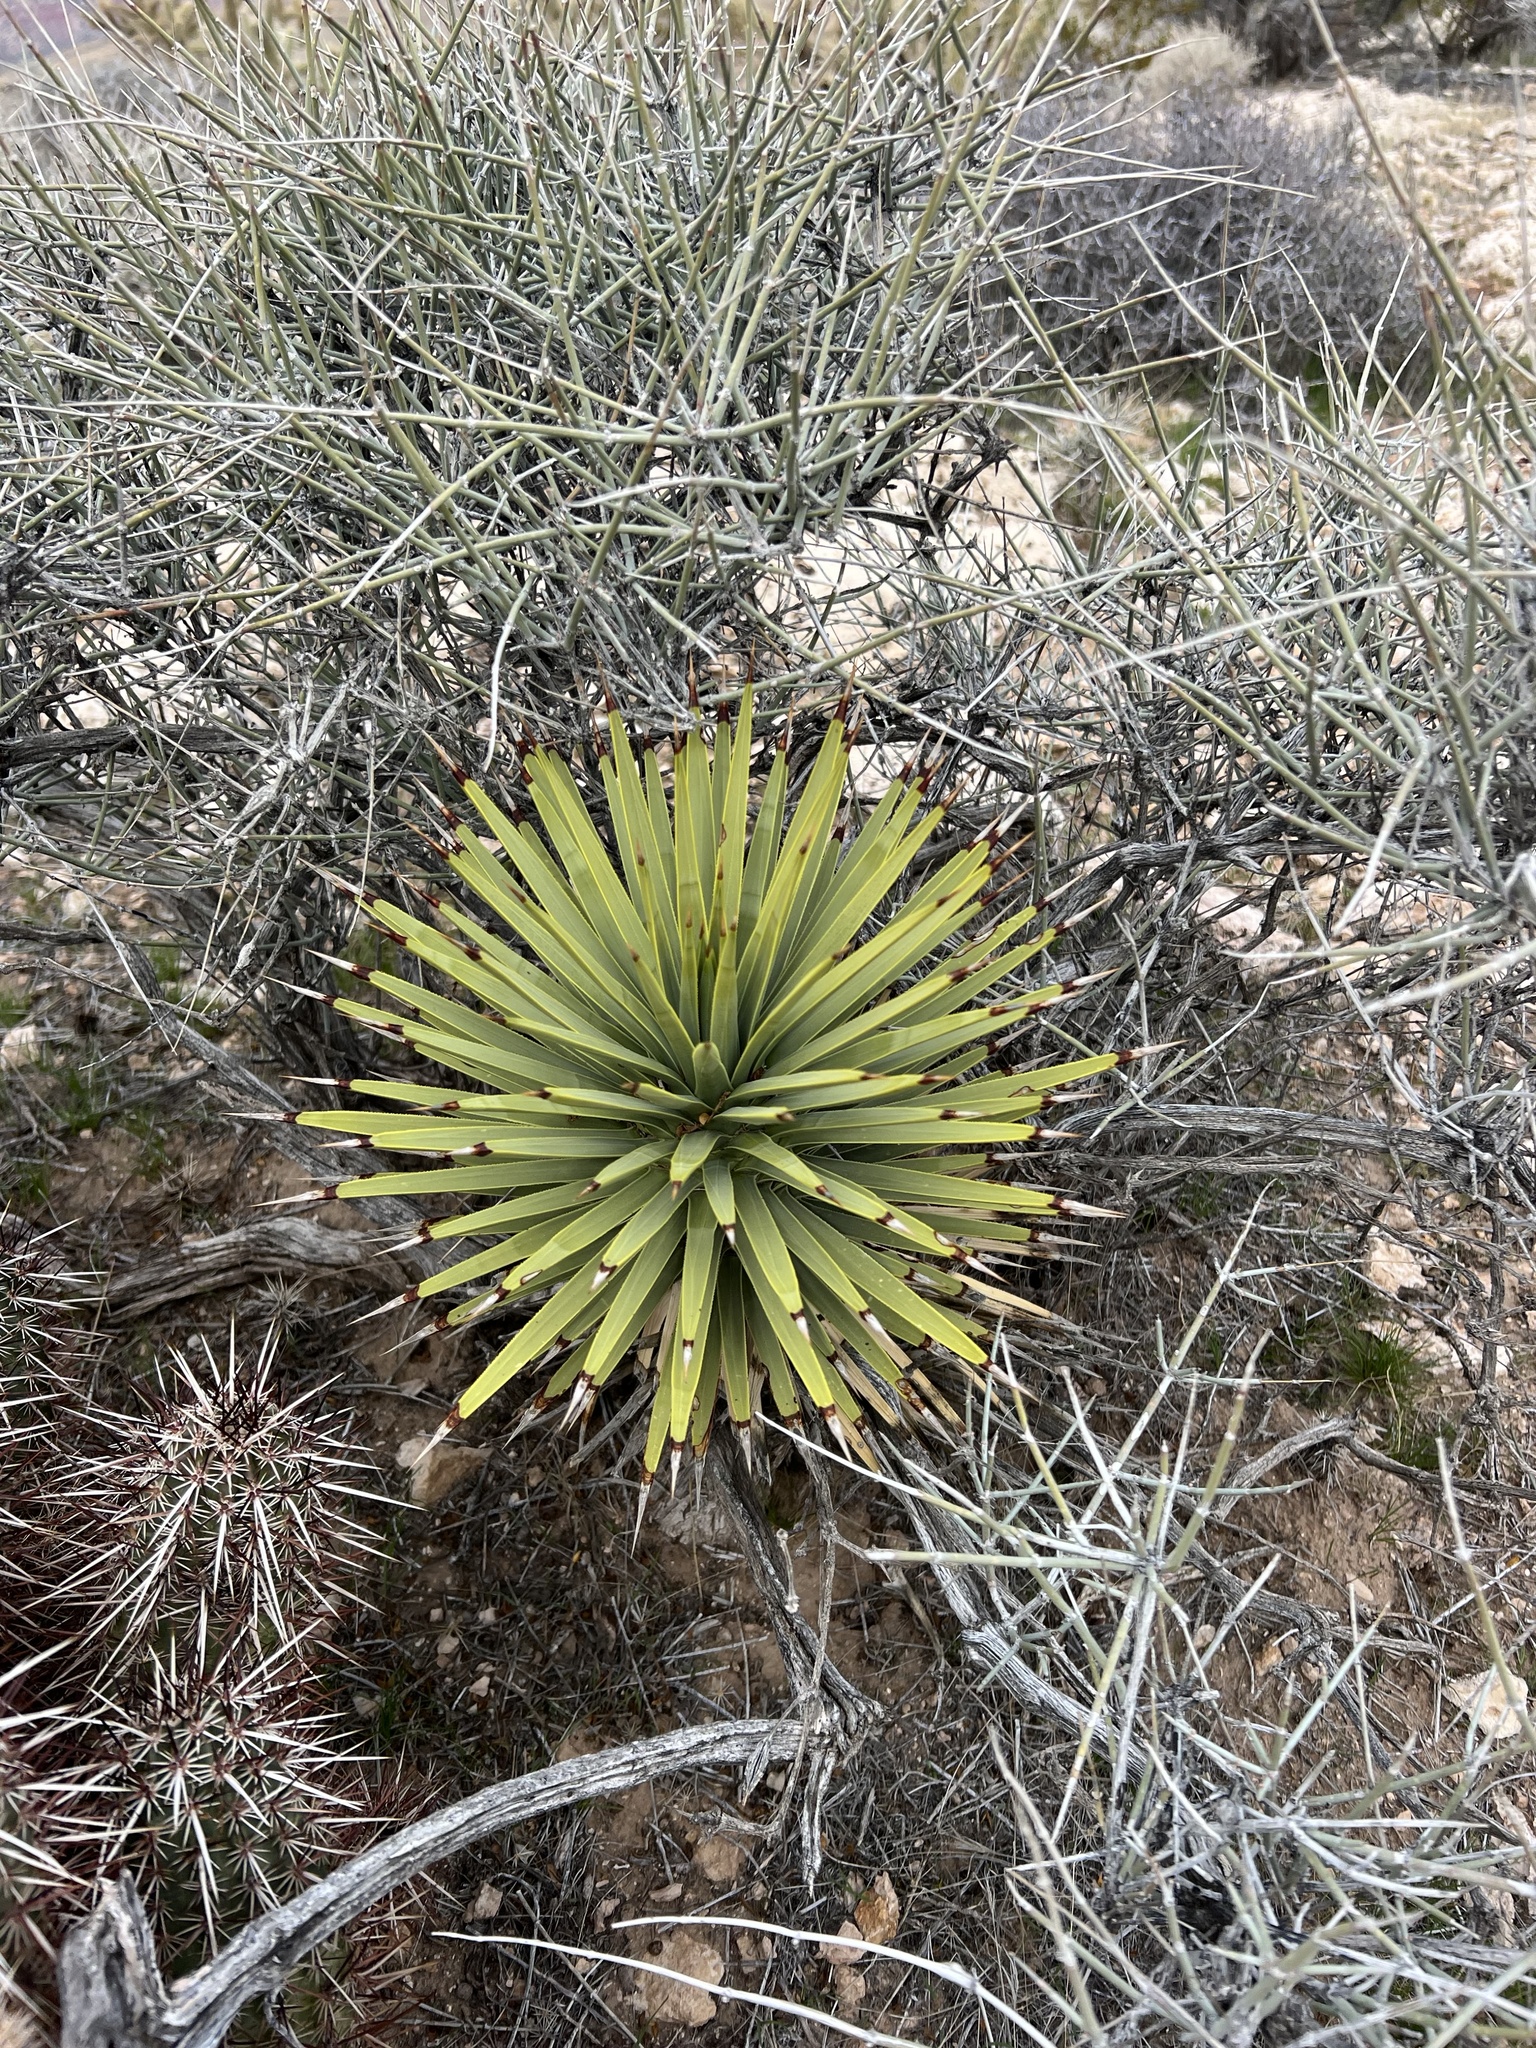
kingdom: Plantae
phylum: Tracheophyta
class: Liliopsida
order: Asparagales
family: Asparagaceae
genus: Yucca
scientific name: Yucca brevifolia
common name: Joshua tree
